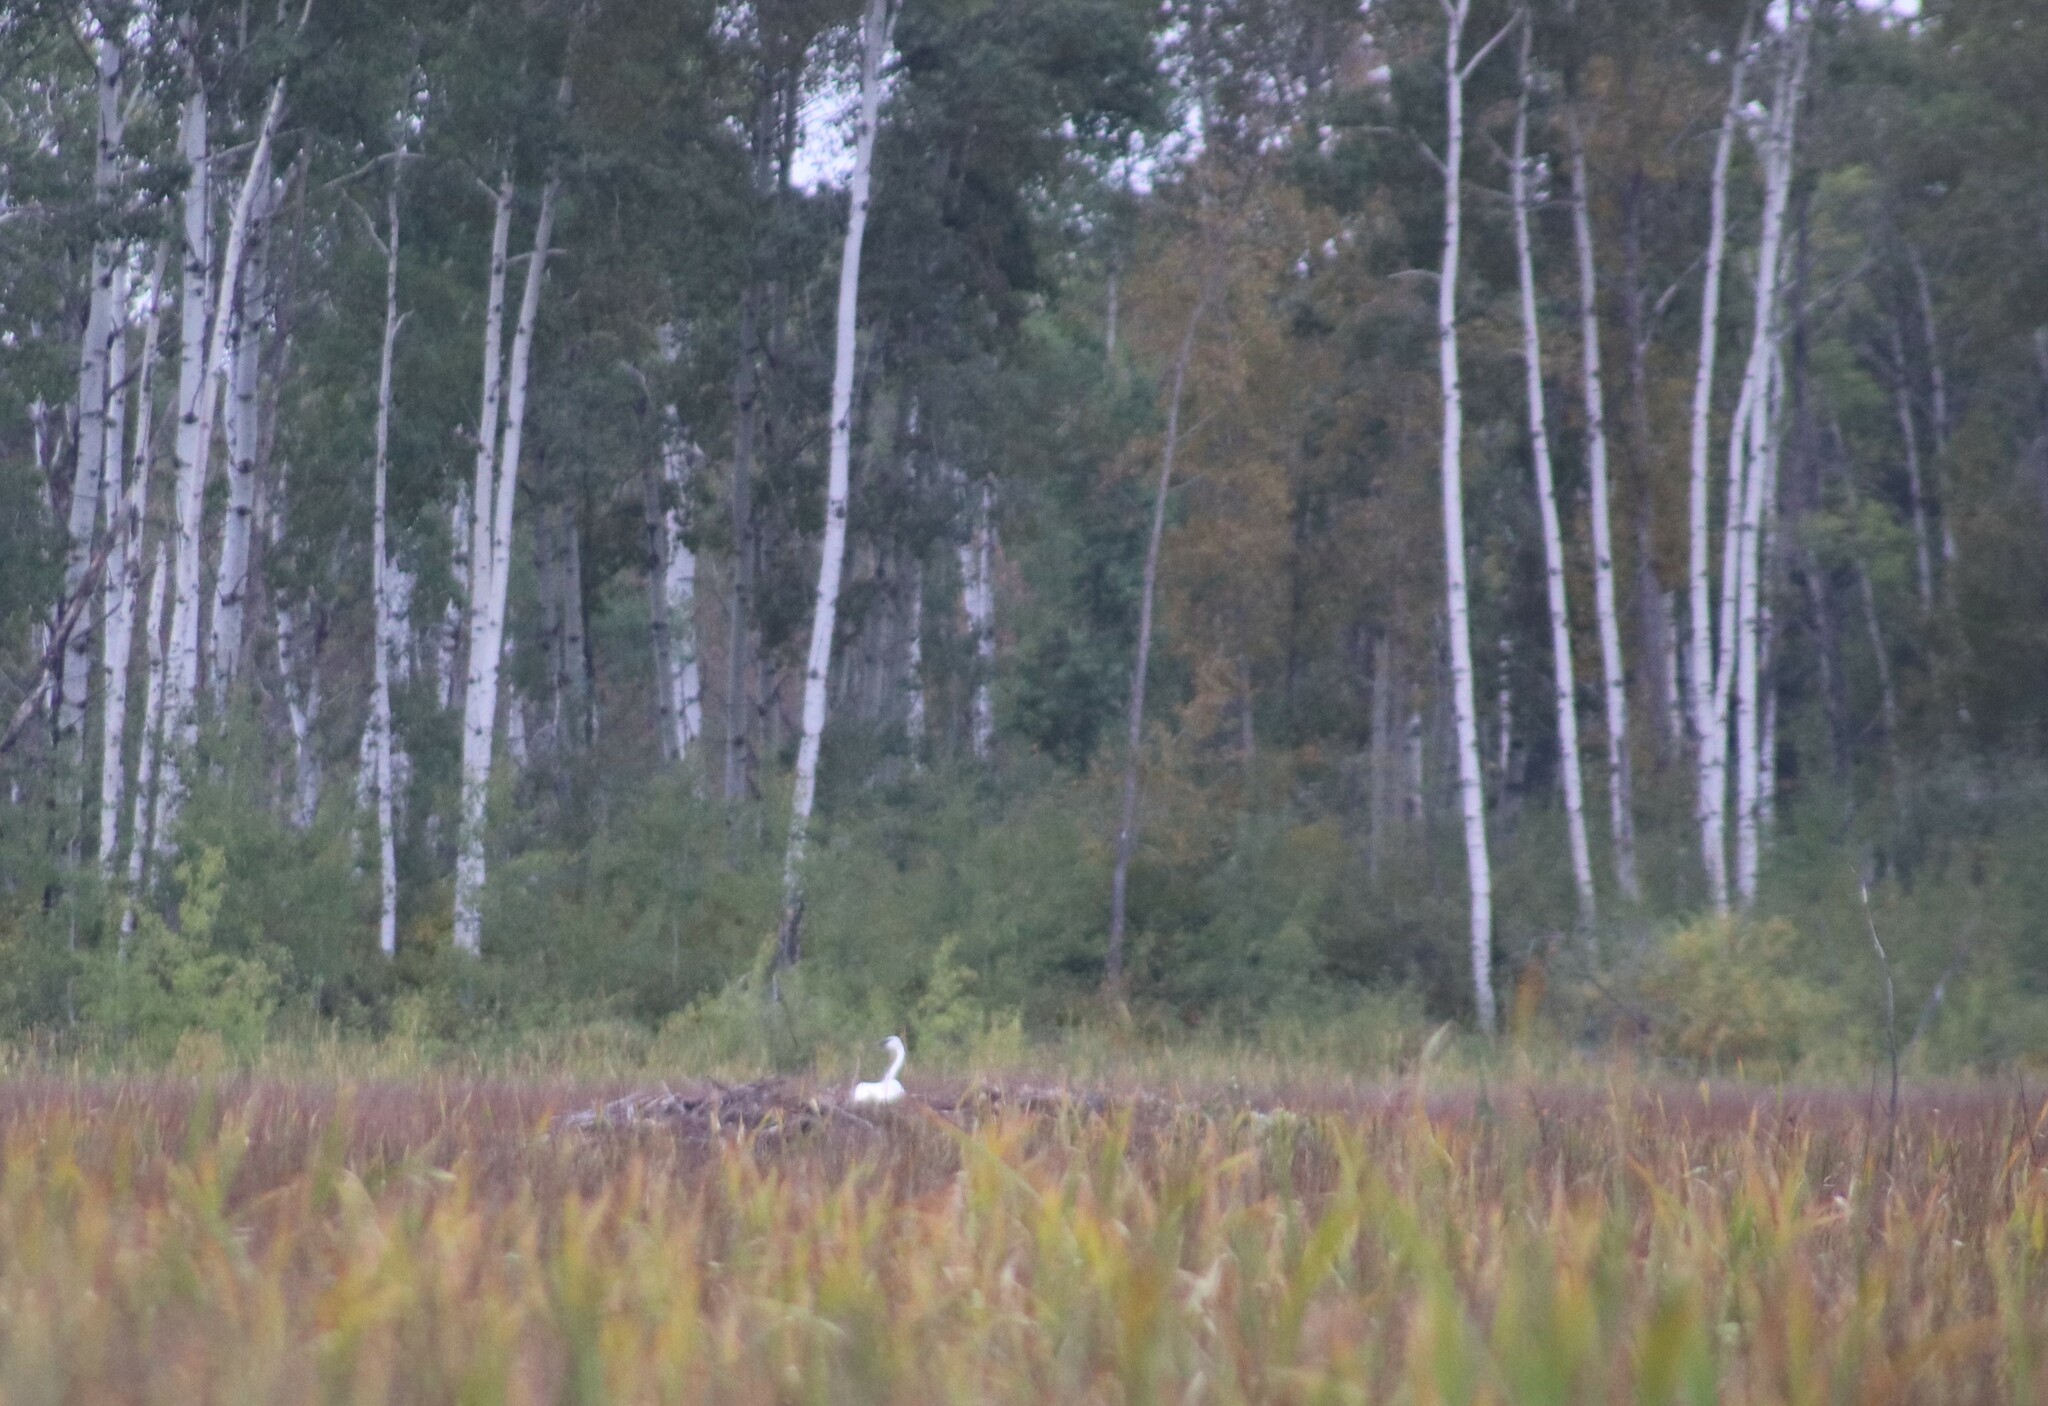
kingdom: Animalia
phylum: Chordata
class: Aves
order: Anseriformes
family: Anatidae
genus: Cygnus
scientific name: Cygnus buccinator
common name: Trumpeter swan
